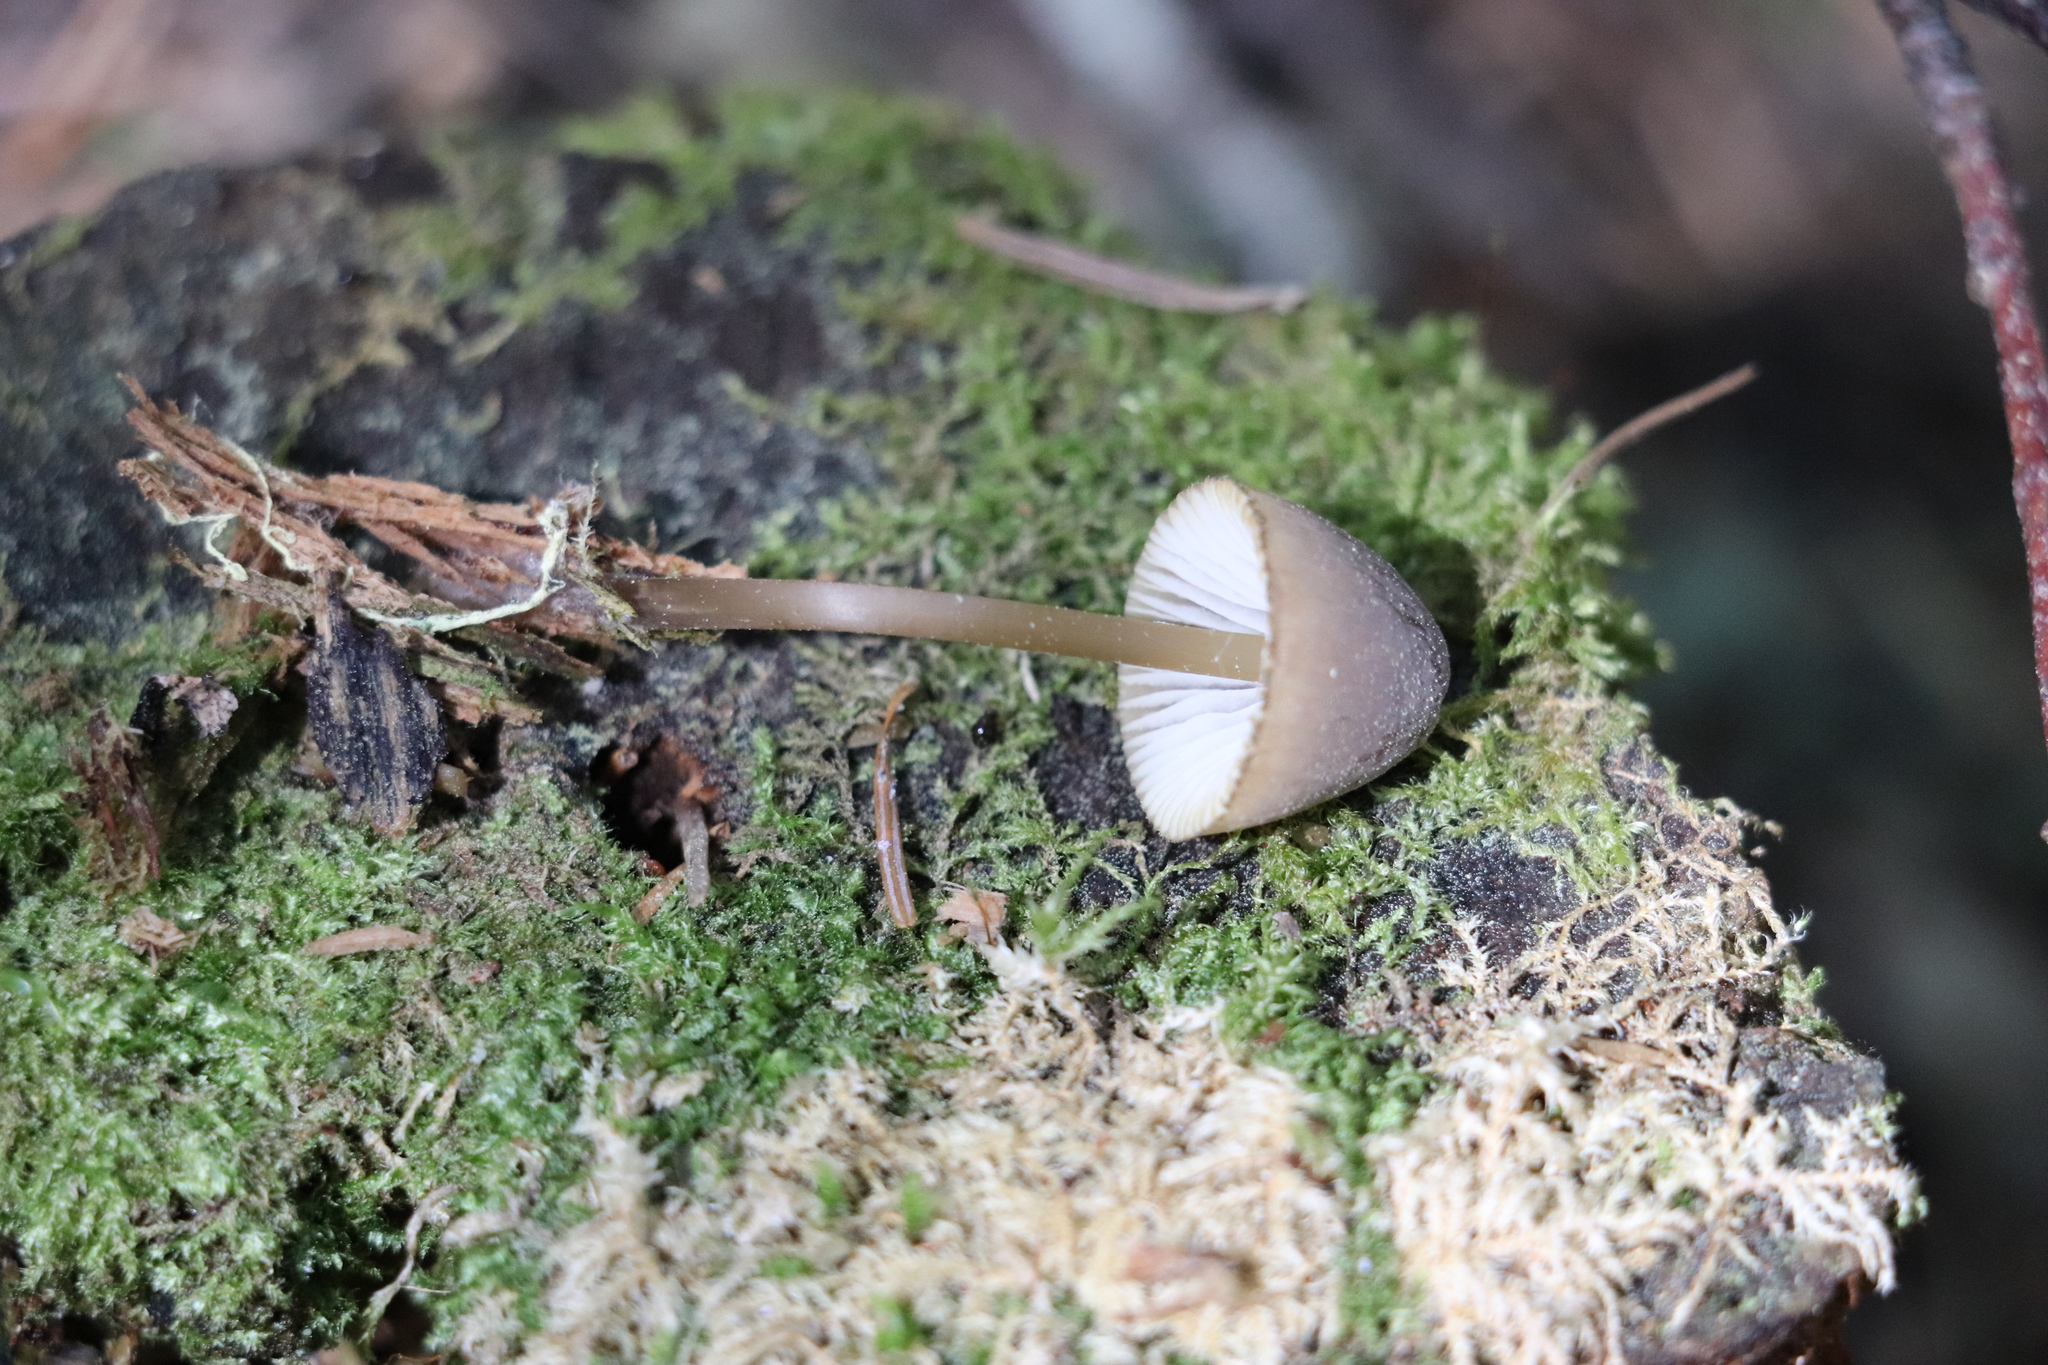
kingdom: Fungi
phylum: Basidiomycota
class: Agaricomycetes
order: Agaricales
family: Mycenaceae
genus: Mycena
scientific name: Mycena viridimarginata
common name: Olive edge bonnet
